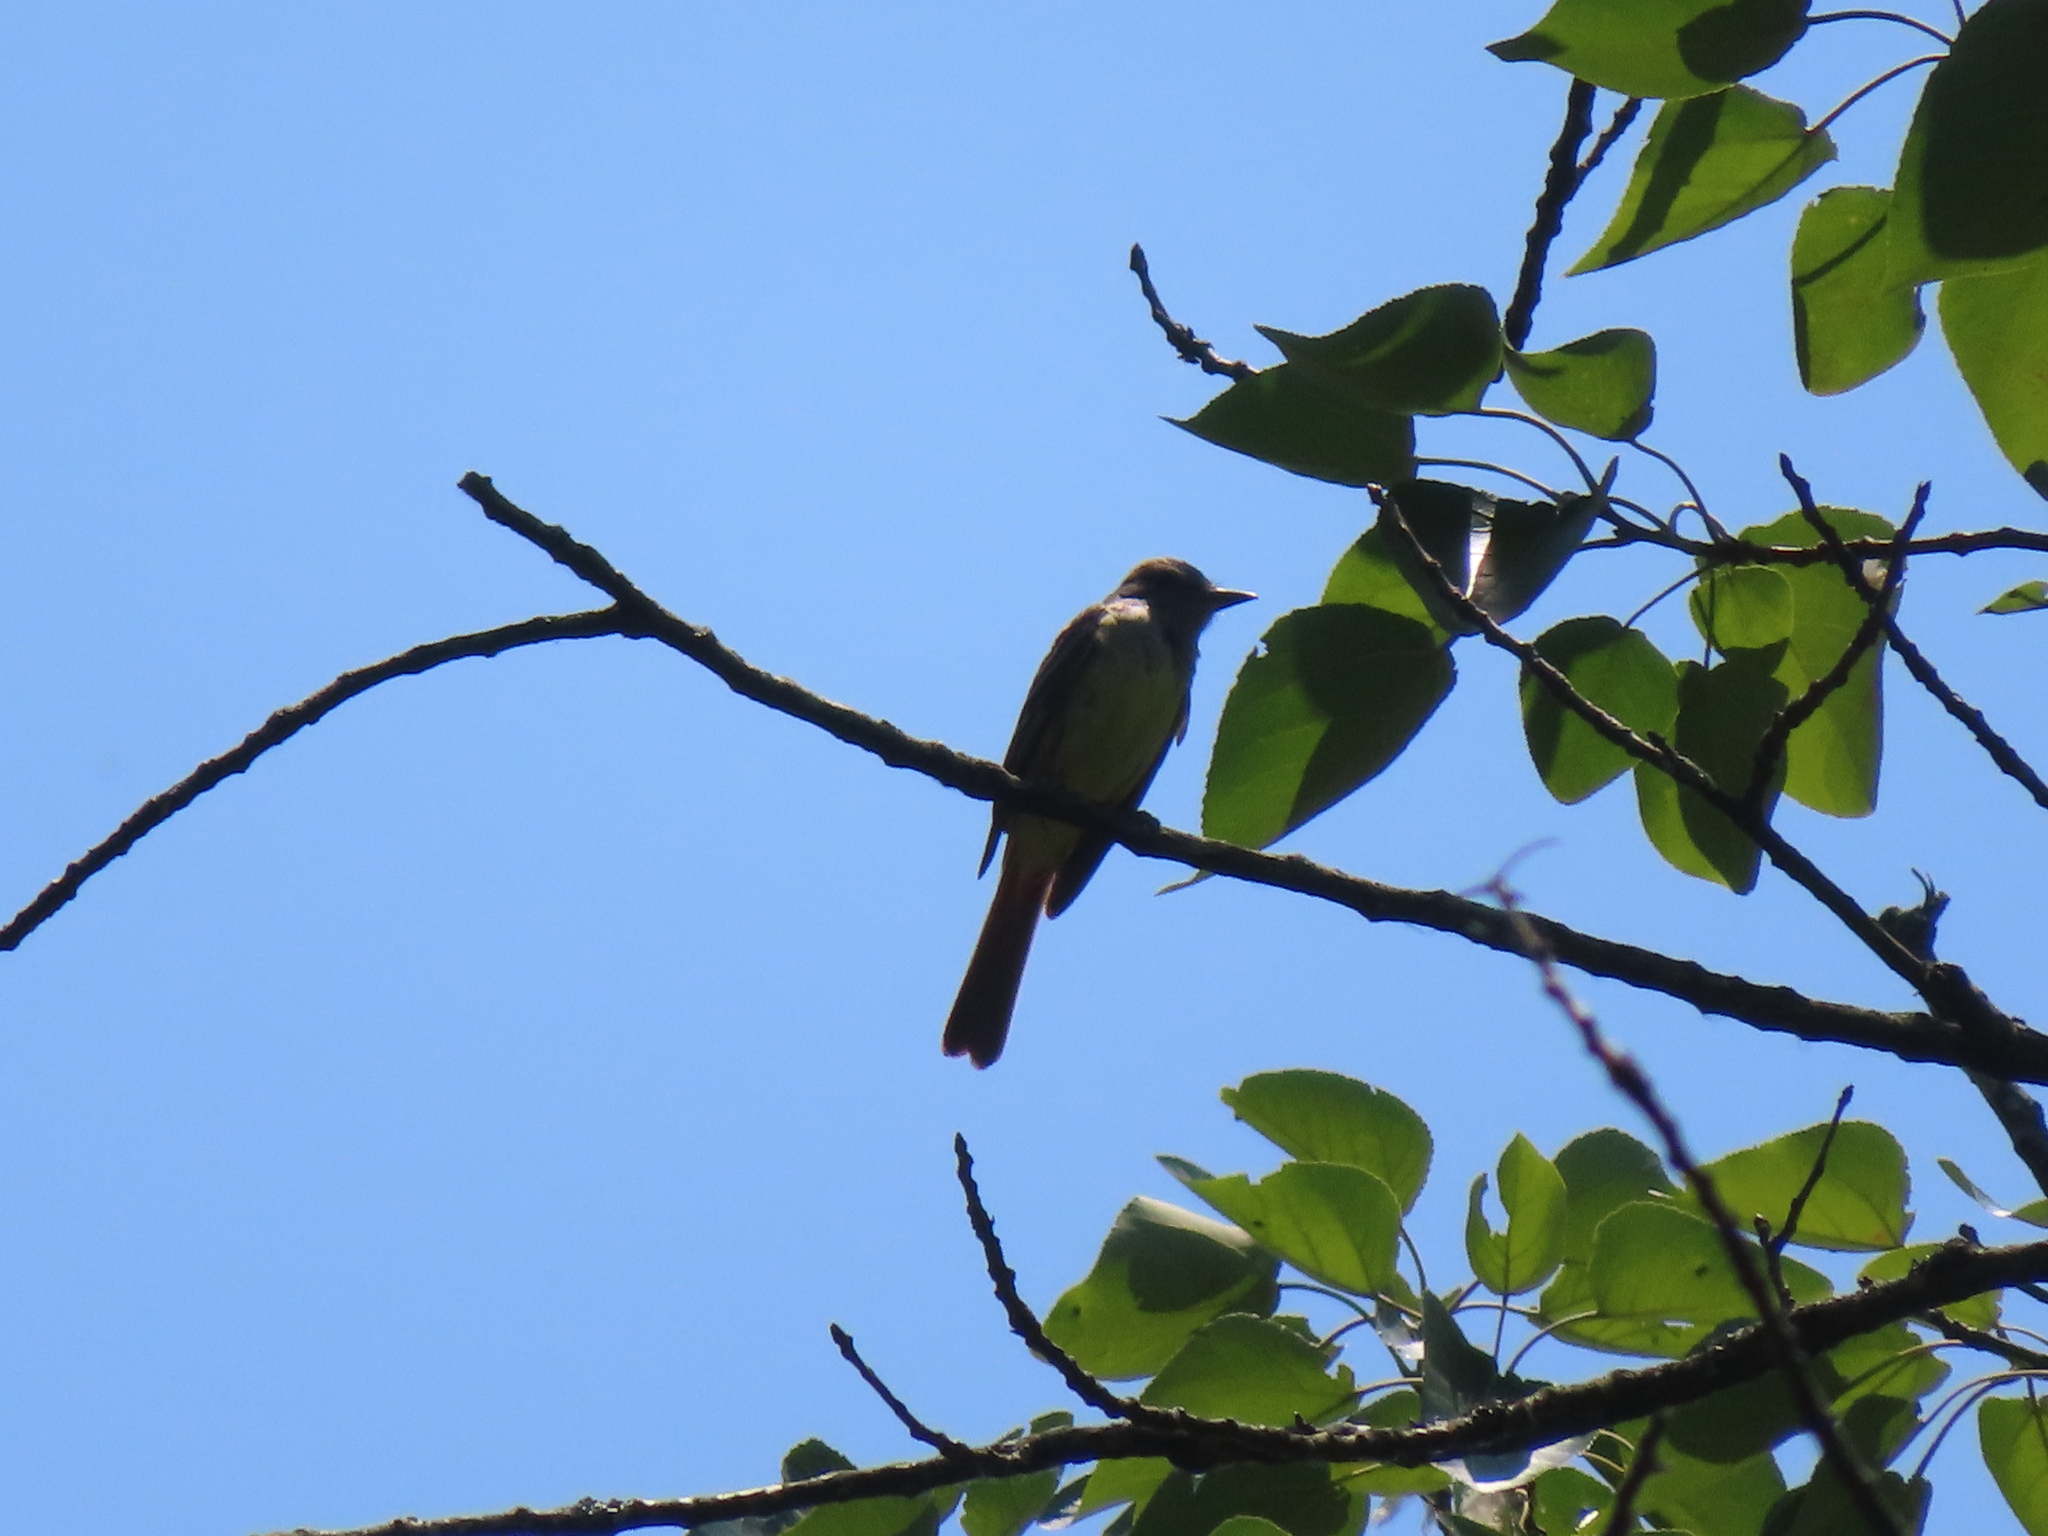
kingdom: Animalia
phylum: Chordata
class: Aves
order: Passeriformes
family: Tyrannidae
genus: Myiarchus
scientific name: Myiarchus crinitus
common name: Great crested flycatcher
